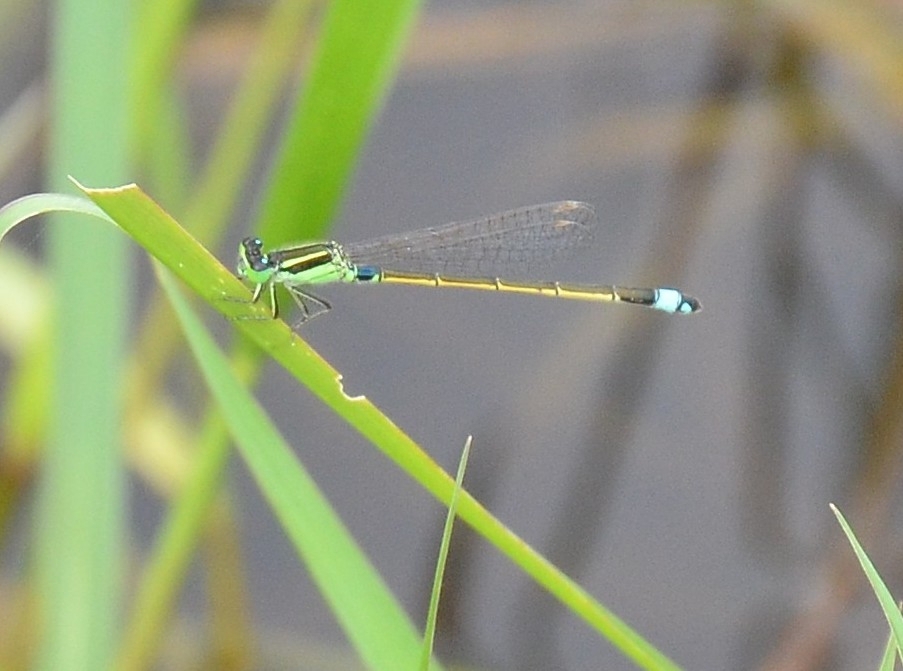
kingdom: Animalia
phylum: Arthropoda
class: Insecta
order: Odonata
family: Coenagrionidae
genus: Ischnura
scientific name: Ischnura senegalensis
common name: Tropical bluetail
